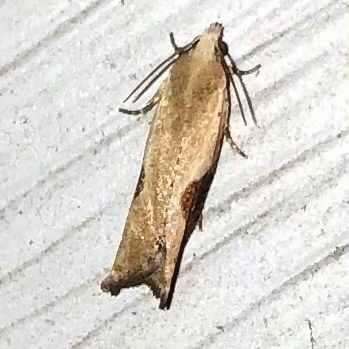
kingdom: Animalia
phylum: Arthropoda
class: Insecta
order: Lepidoptera
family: Tortricidae
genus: Pseudexentera
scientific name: Pseudexentera virginiana
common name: Virginia pseudexentera moth
